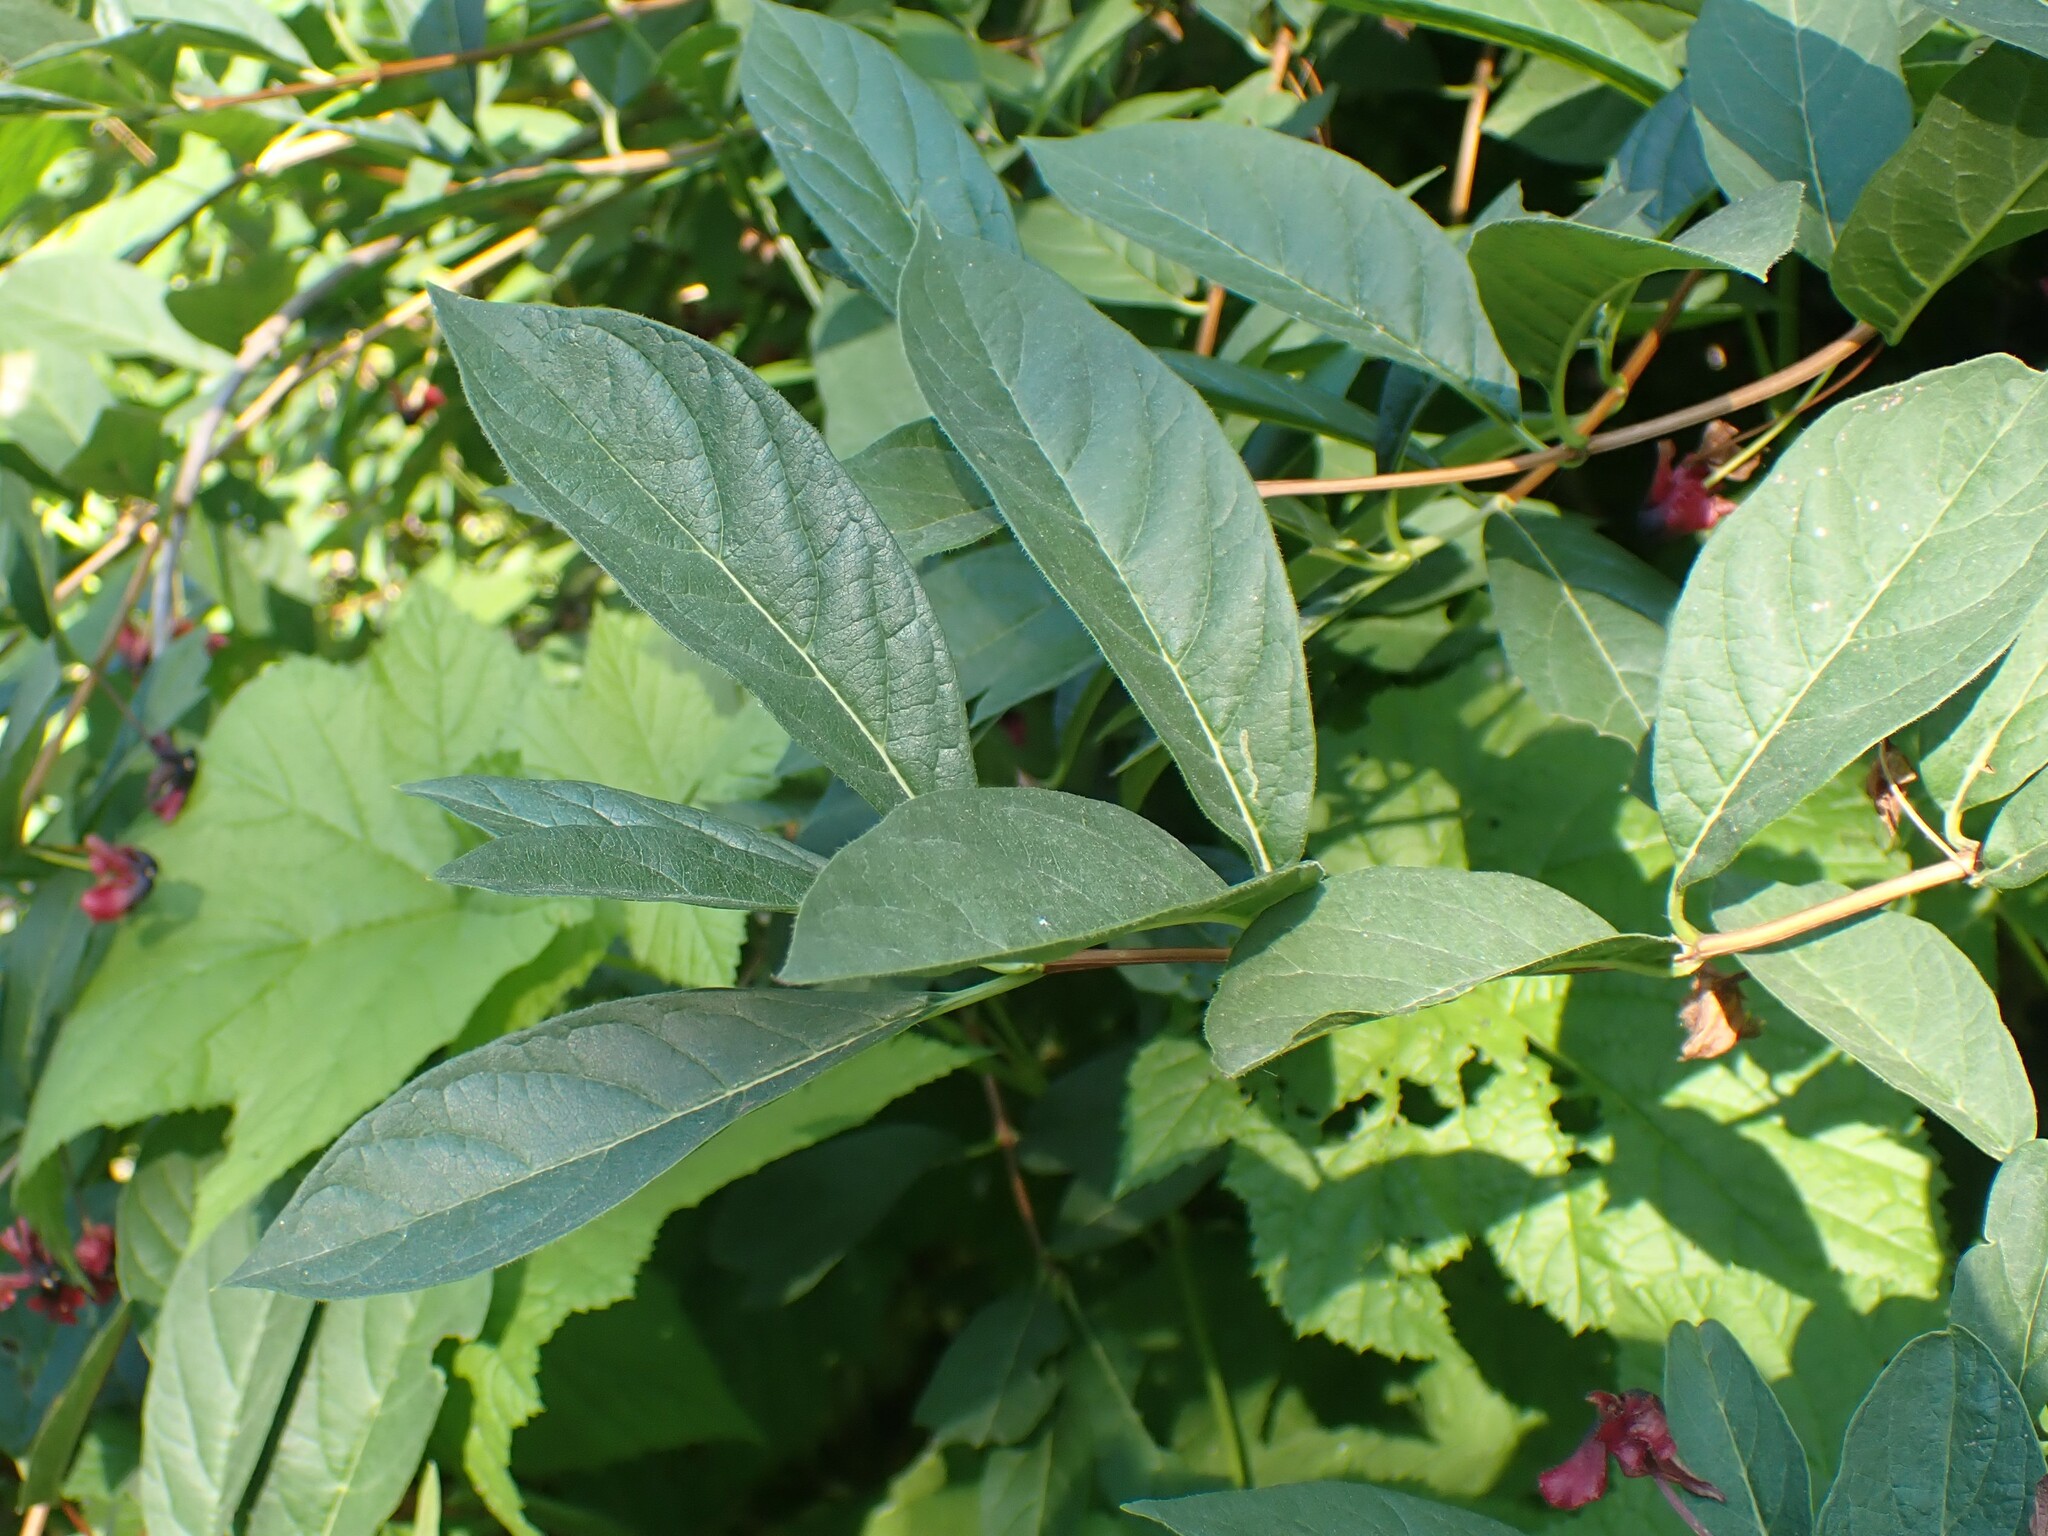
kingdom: Plantae
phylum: Tracheophyta
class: Magnoliopsida
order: Dipsacales
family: Caprifoliaceae
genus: Lonicera
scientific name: Lonicera involucrata
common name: Californian honeysuckle
